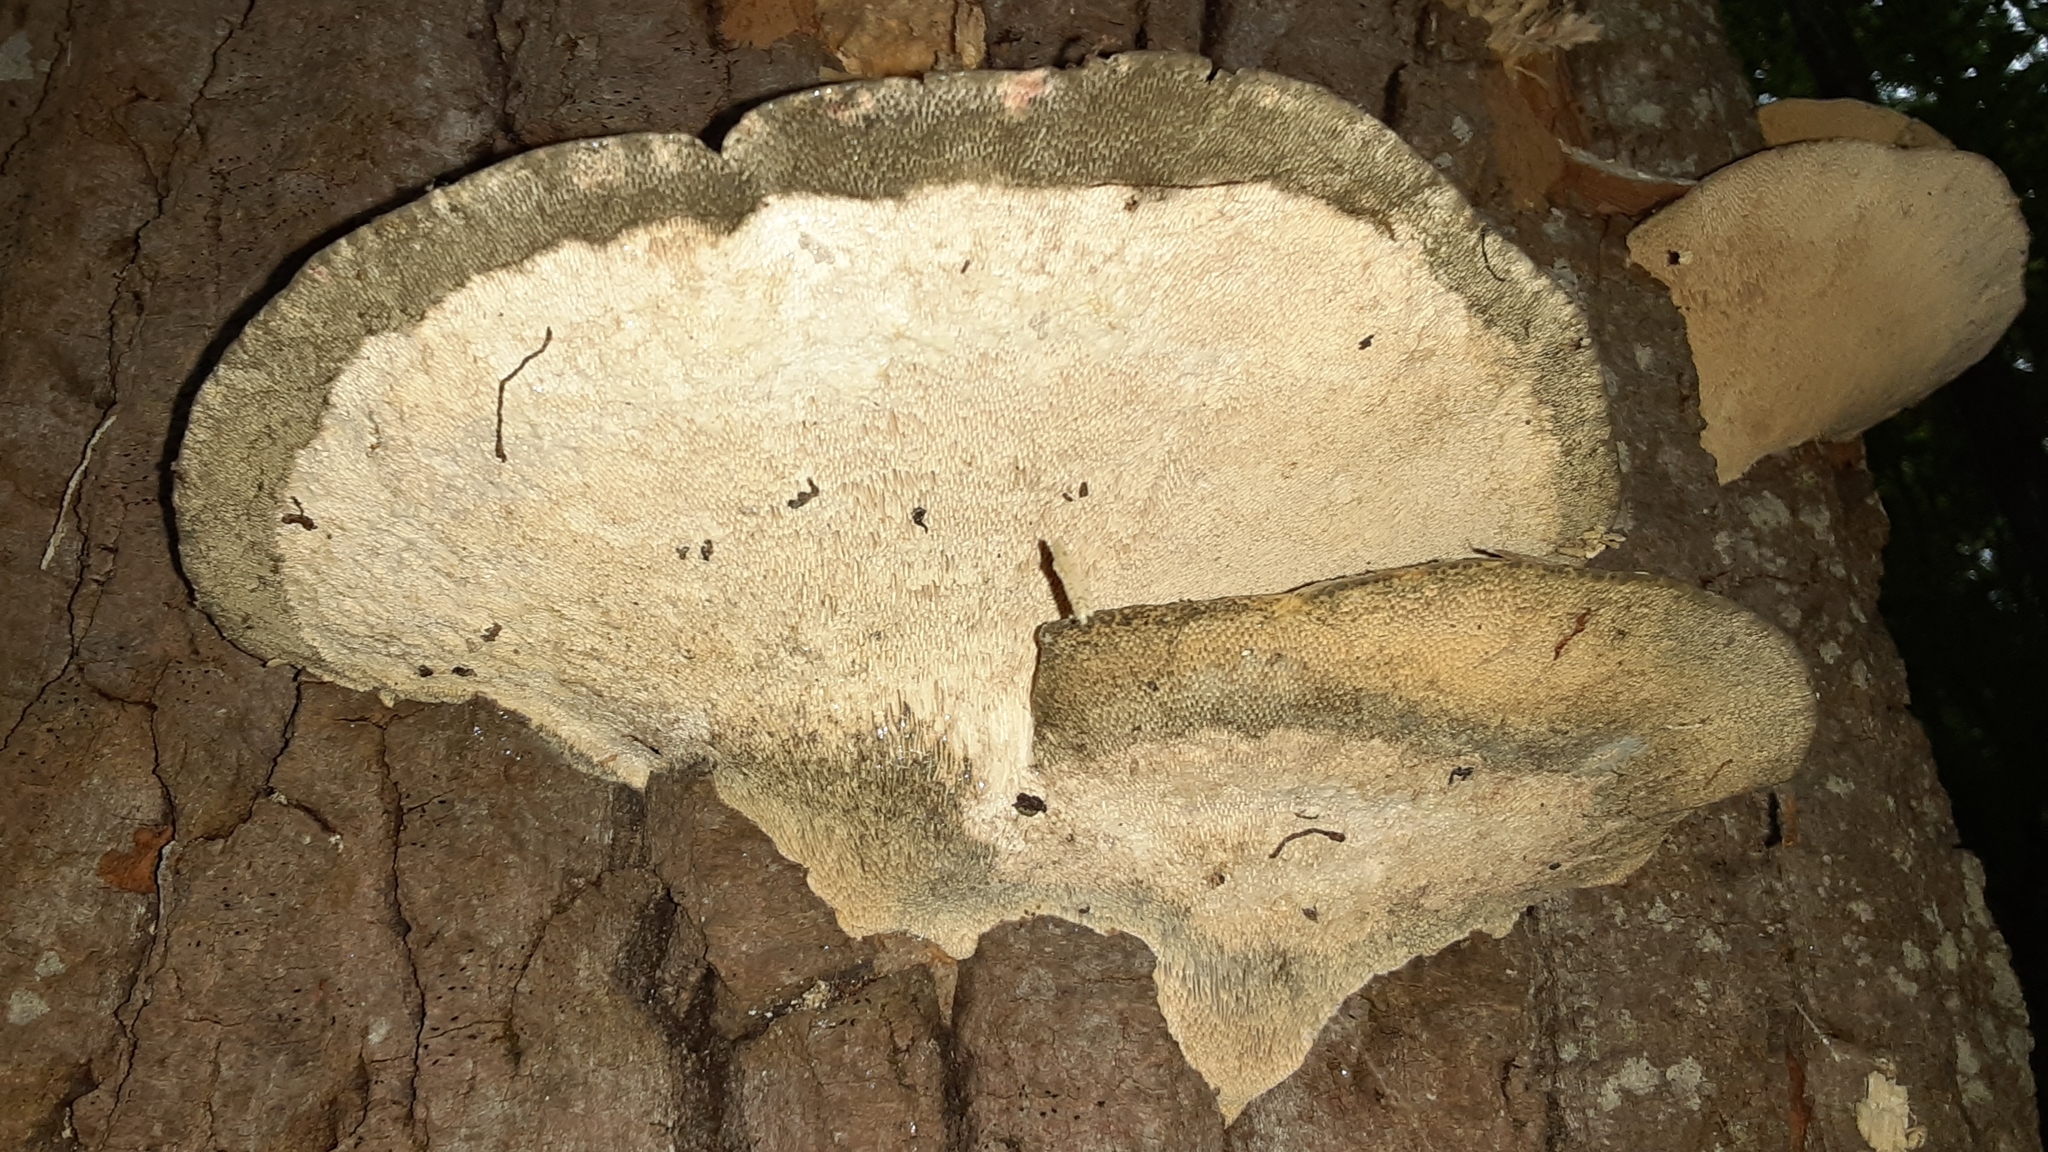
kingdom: Fungi
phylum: Basidiomycota
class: Agaricomycetes
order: Polyporales
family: Polyporaceae
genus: Trametes
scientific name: Trametes gibbosa
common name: Lumpy bracket
